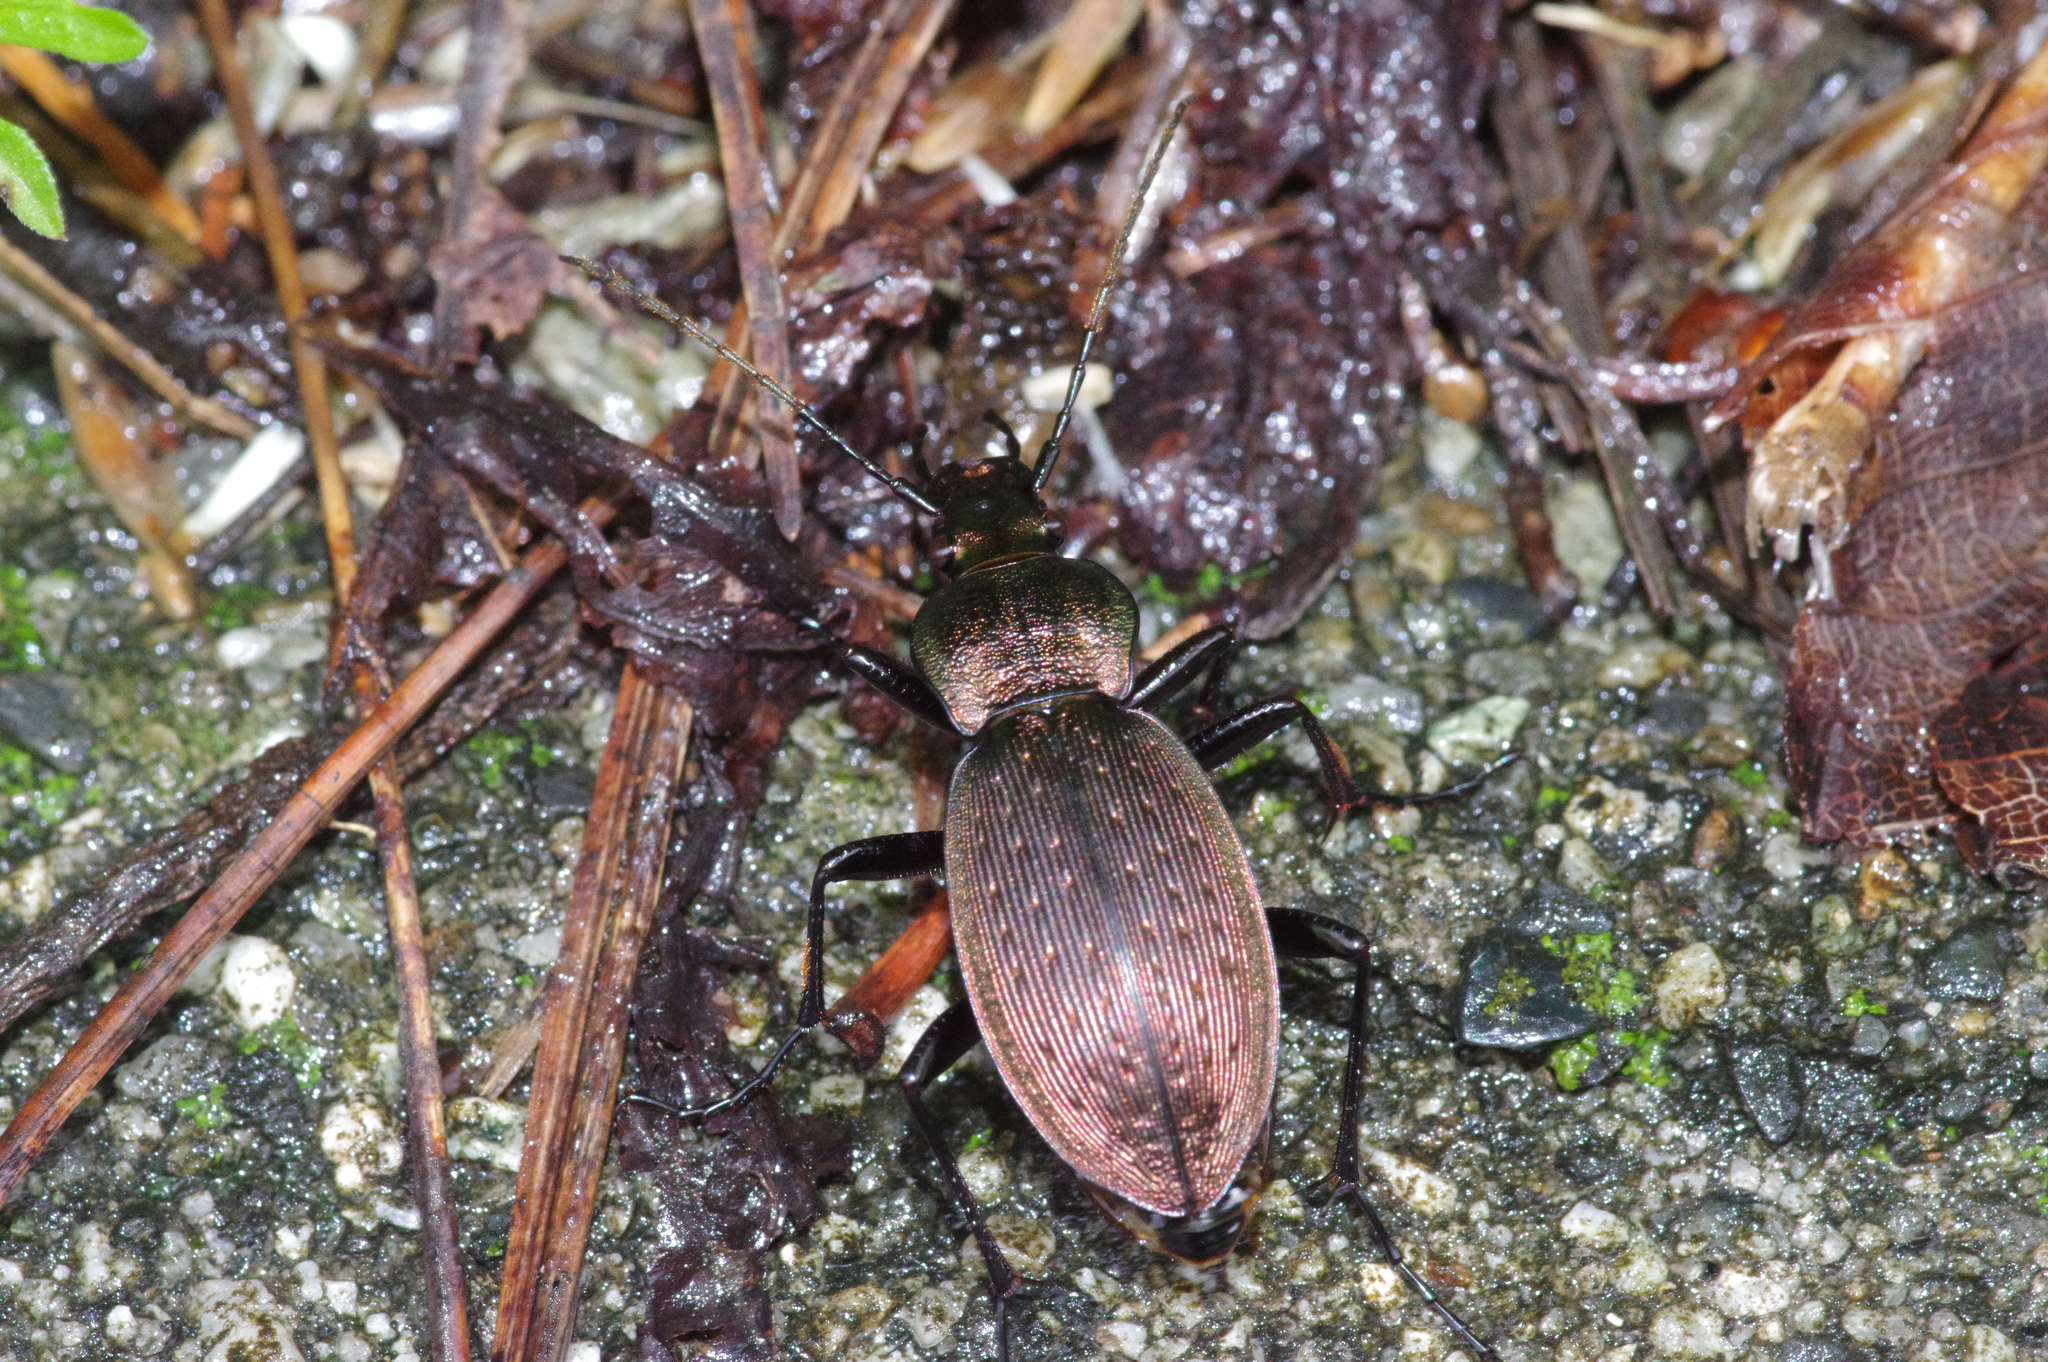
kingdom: Animalia
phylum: Arthropoda
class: Insecta
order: Coleoptera
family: Carabidae
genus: Carabus
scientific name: Carabus insulicola
